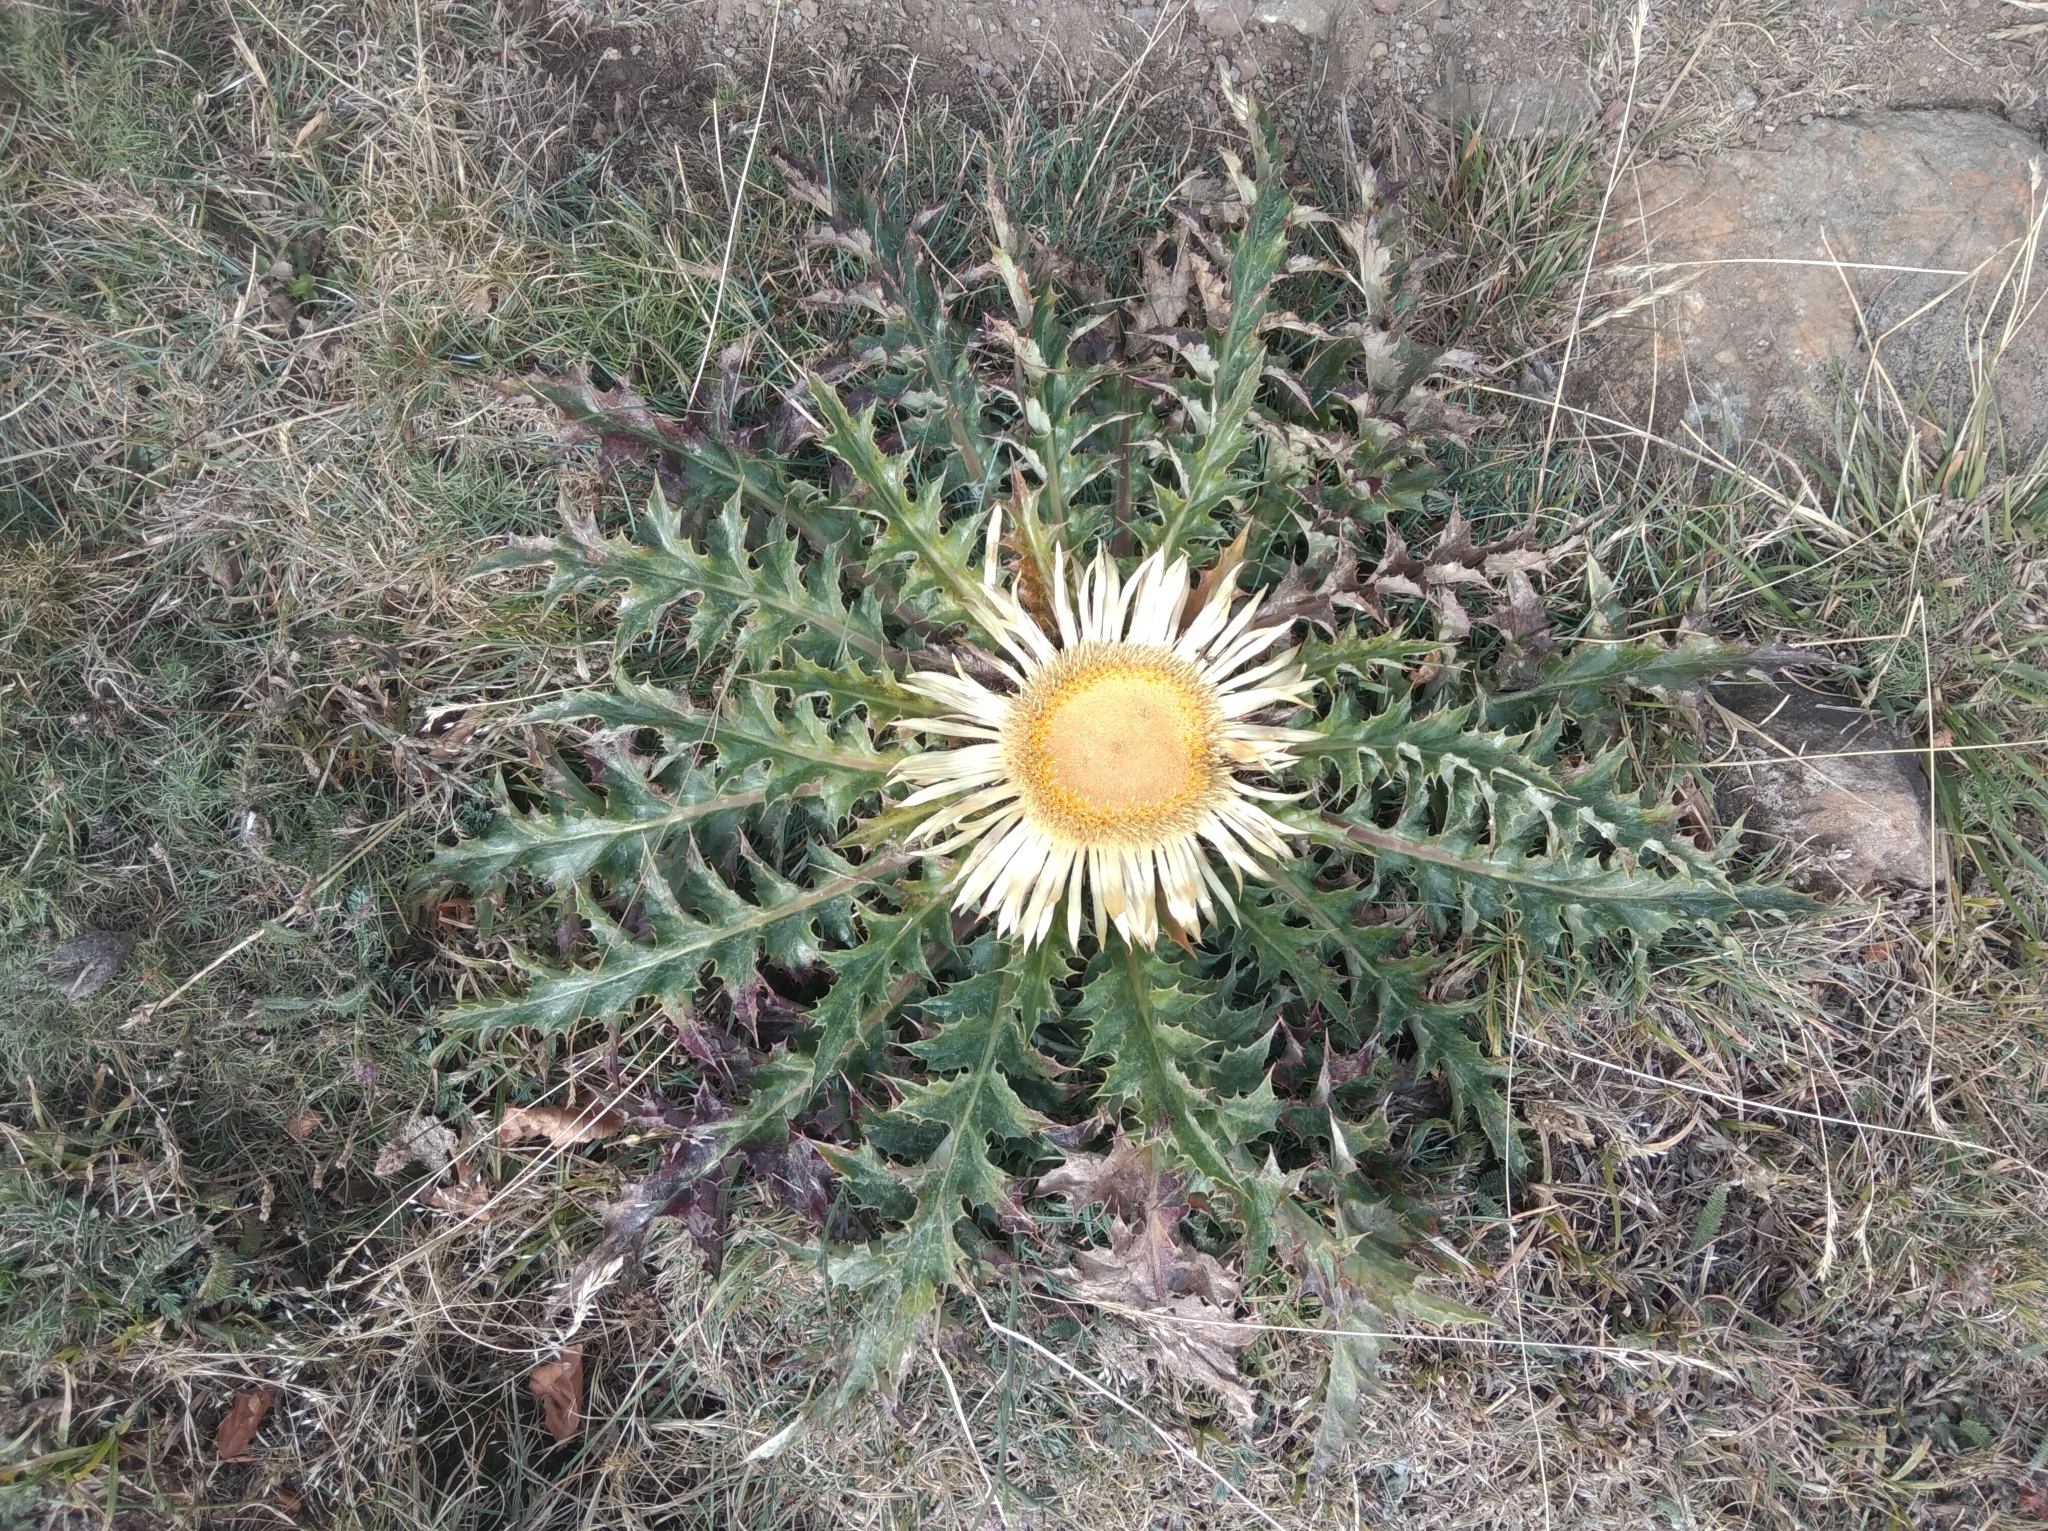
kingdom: Plantae
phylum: Tracheophyta
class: Magnoliopsida
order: Asterales
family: Asteraceae
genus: Carlina
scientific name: Carlina acanthifolia
